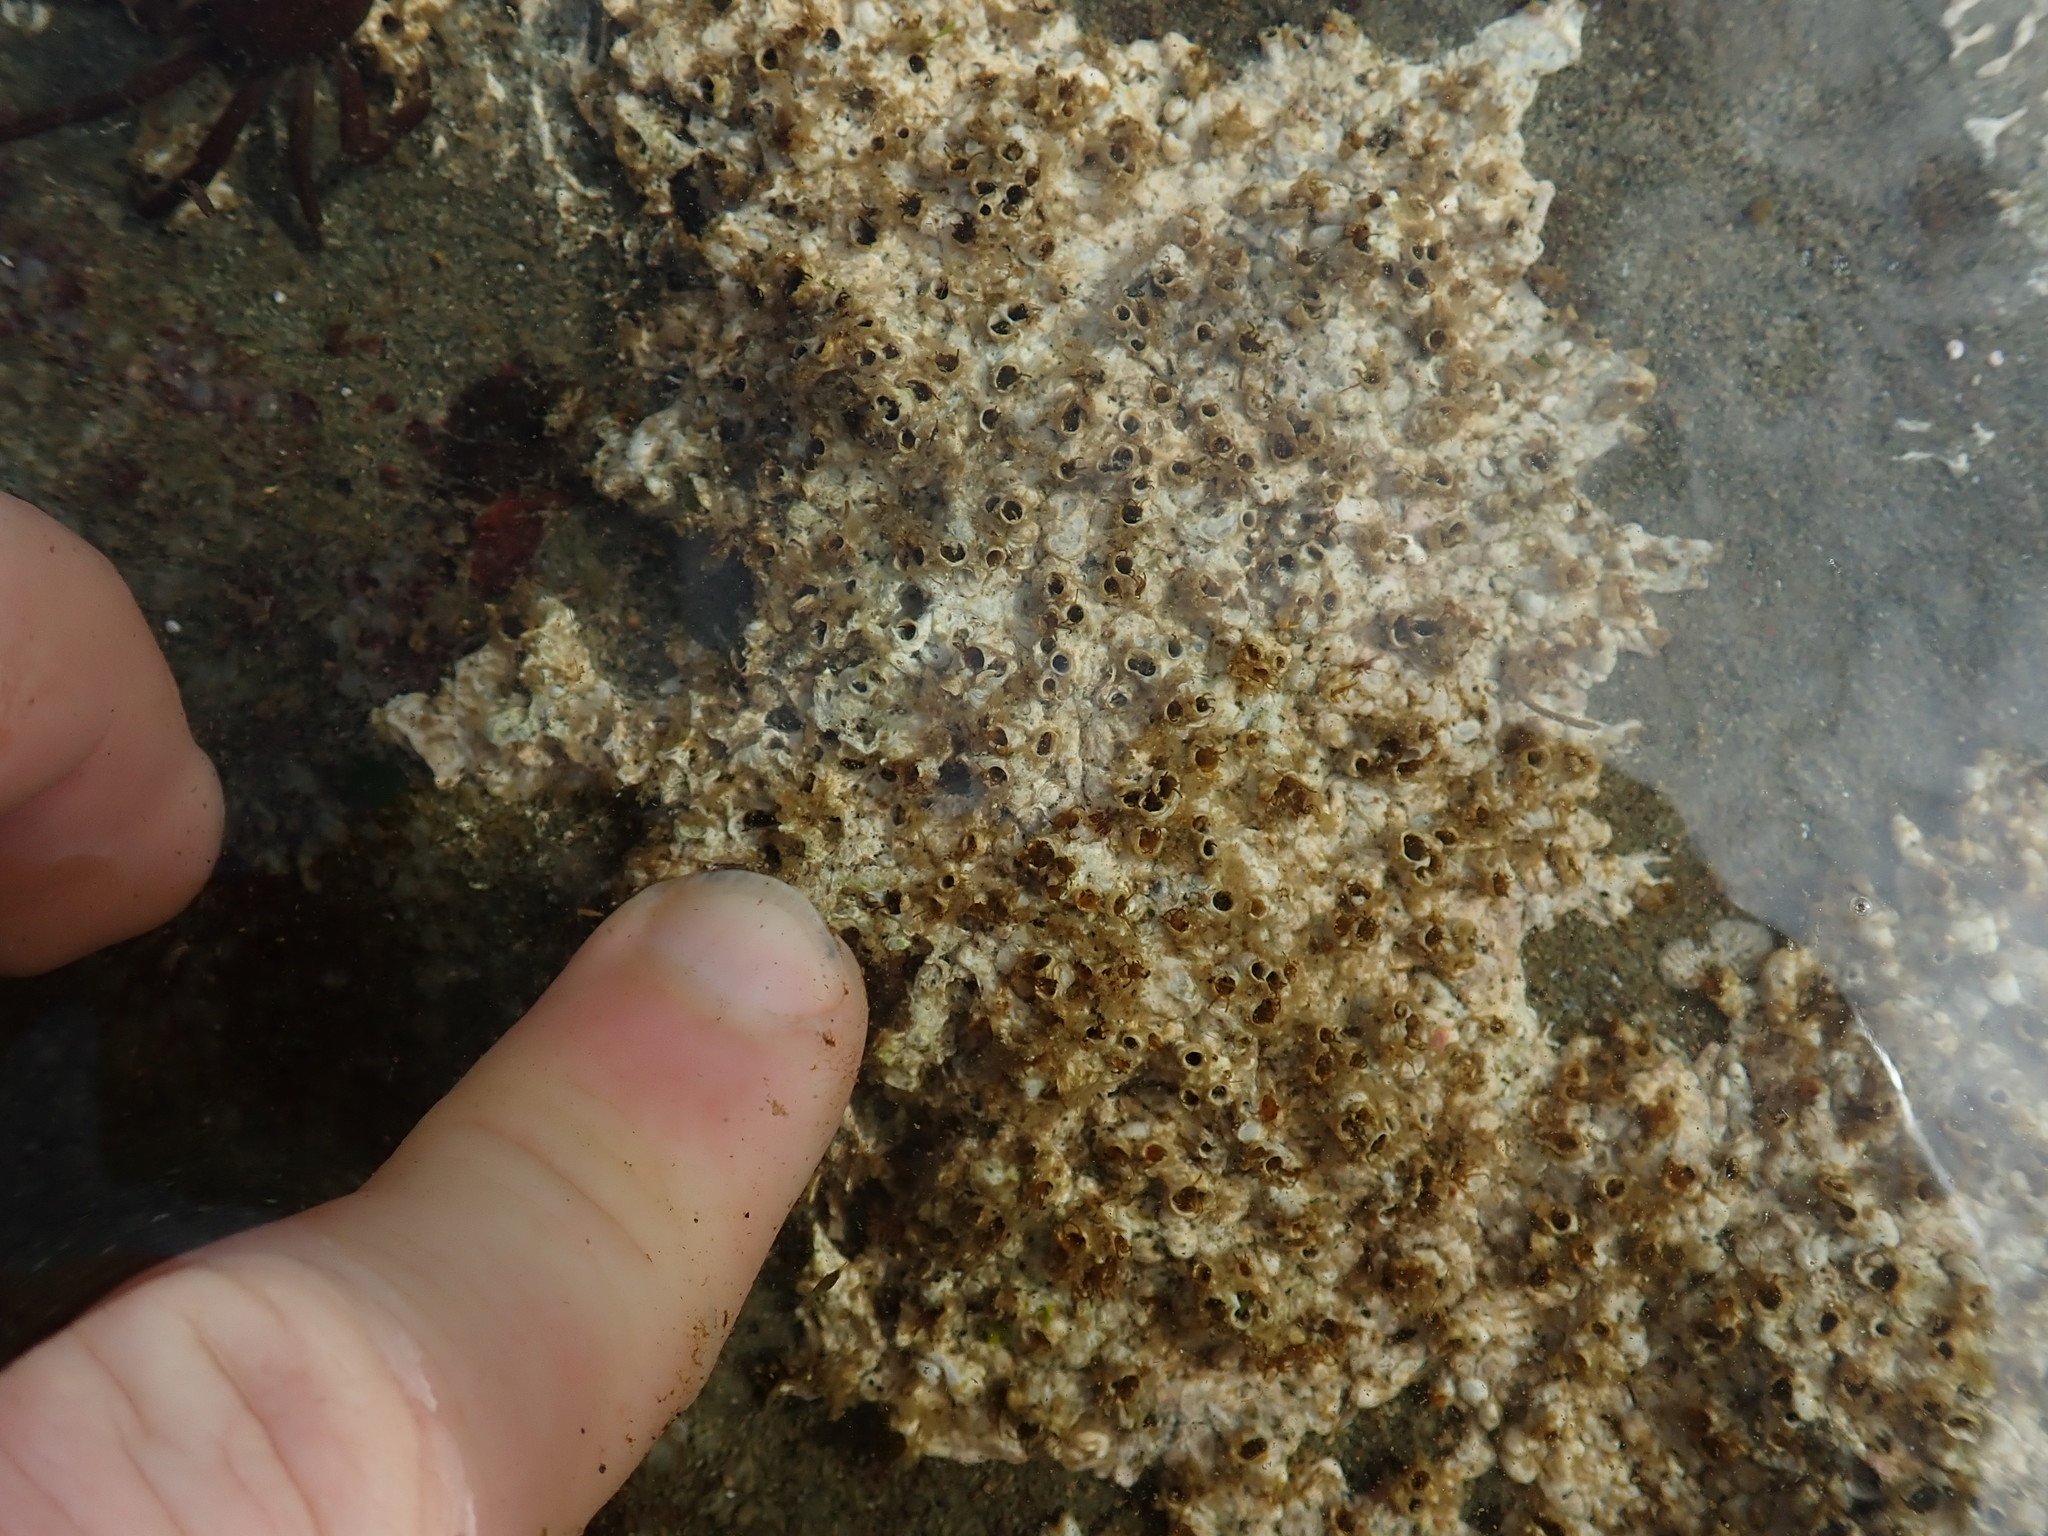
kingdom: Animalia
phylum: Annelida
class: Polychaeta
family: Cirratulidae
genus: Dodecaceria
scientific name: Dodecaceria concharum
